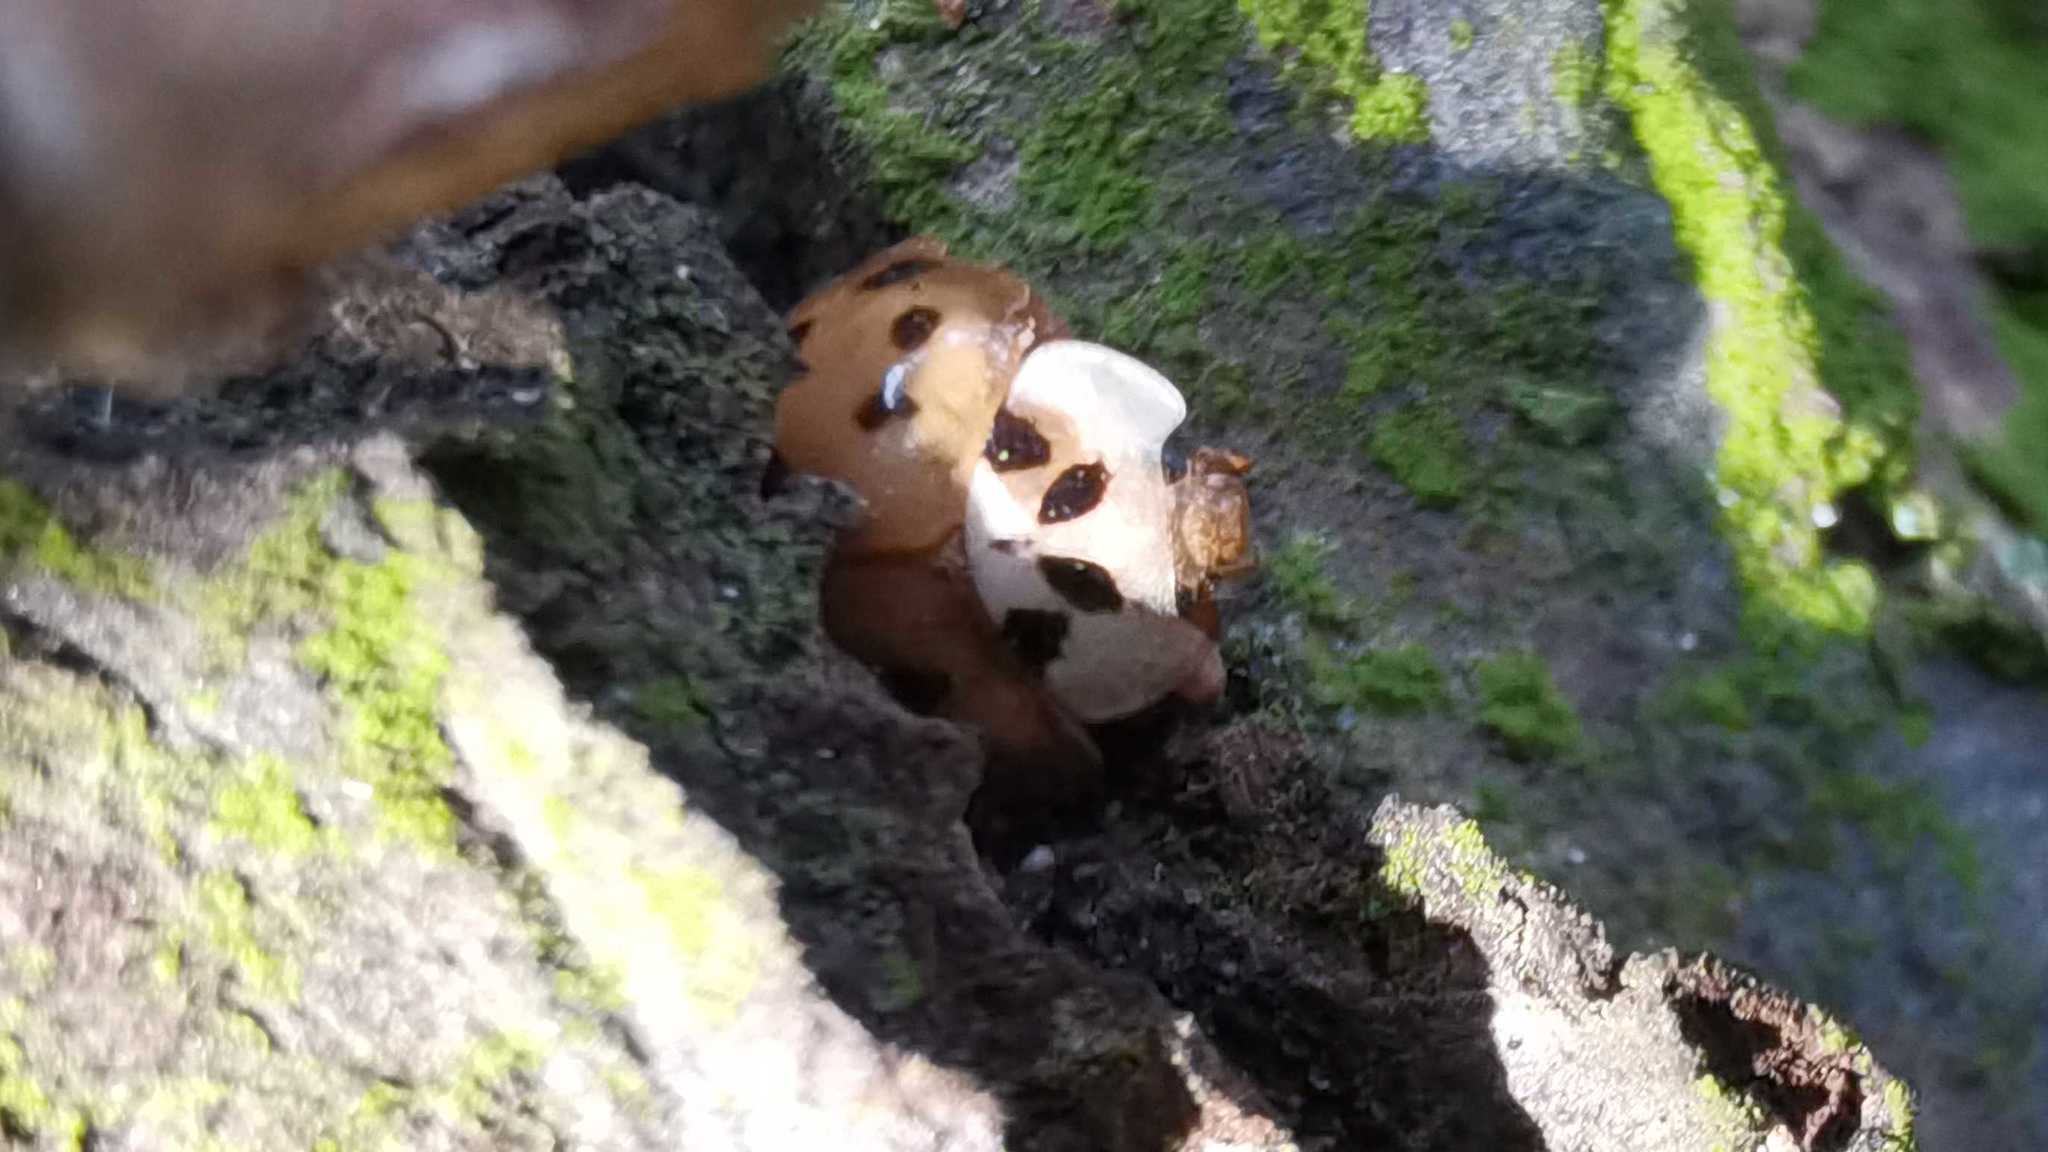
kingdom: Animalia
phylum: Arthropoda
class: Insecta
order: Coleoptera
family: Coccinellidae
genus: Harmonia
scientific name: Harmonia axyridis
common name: Harlequin ladybird
